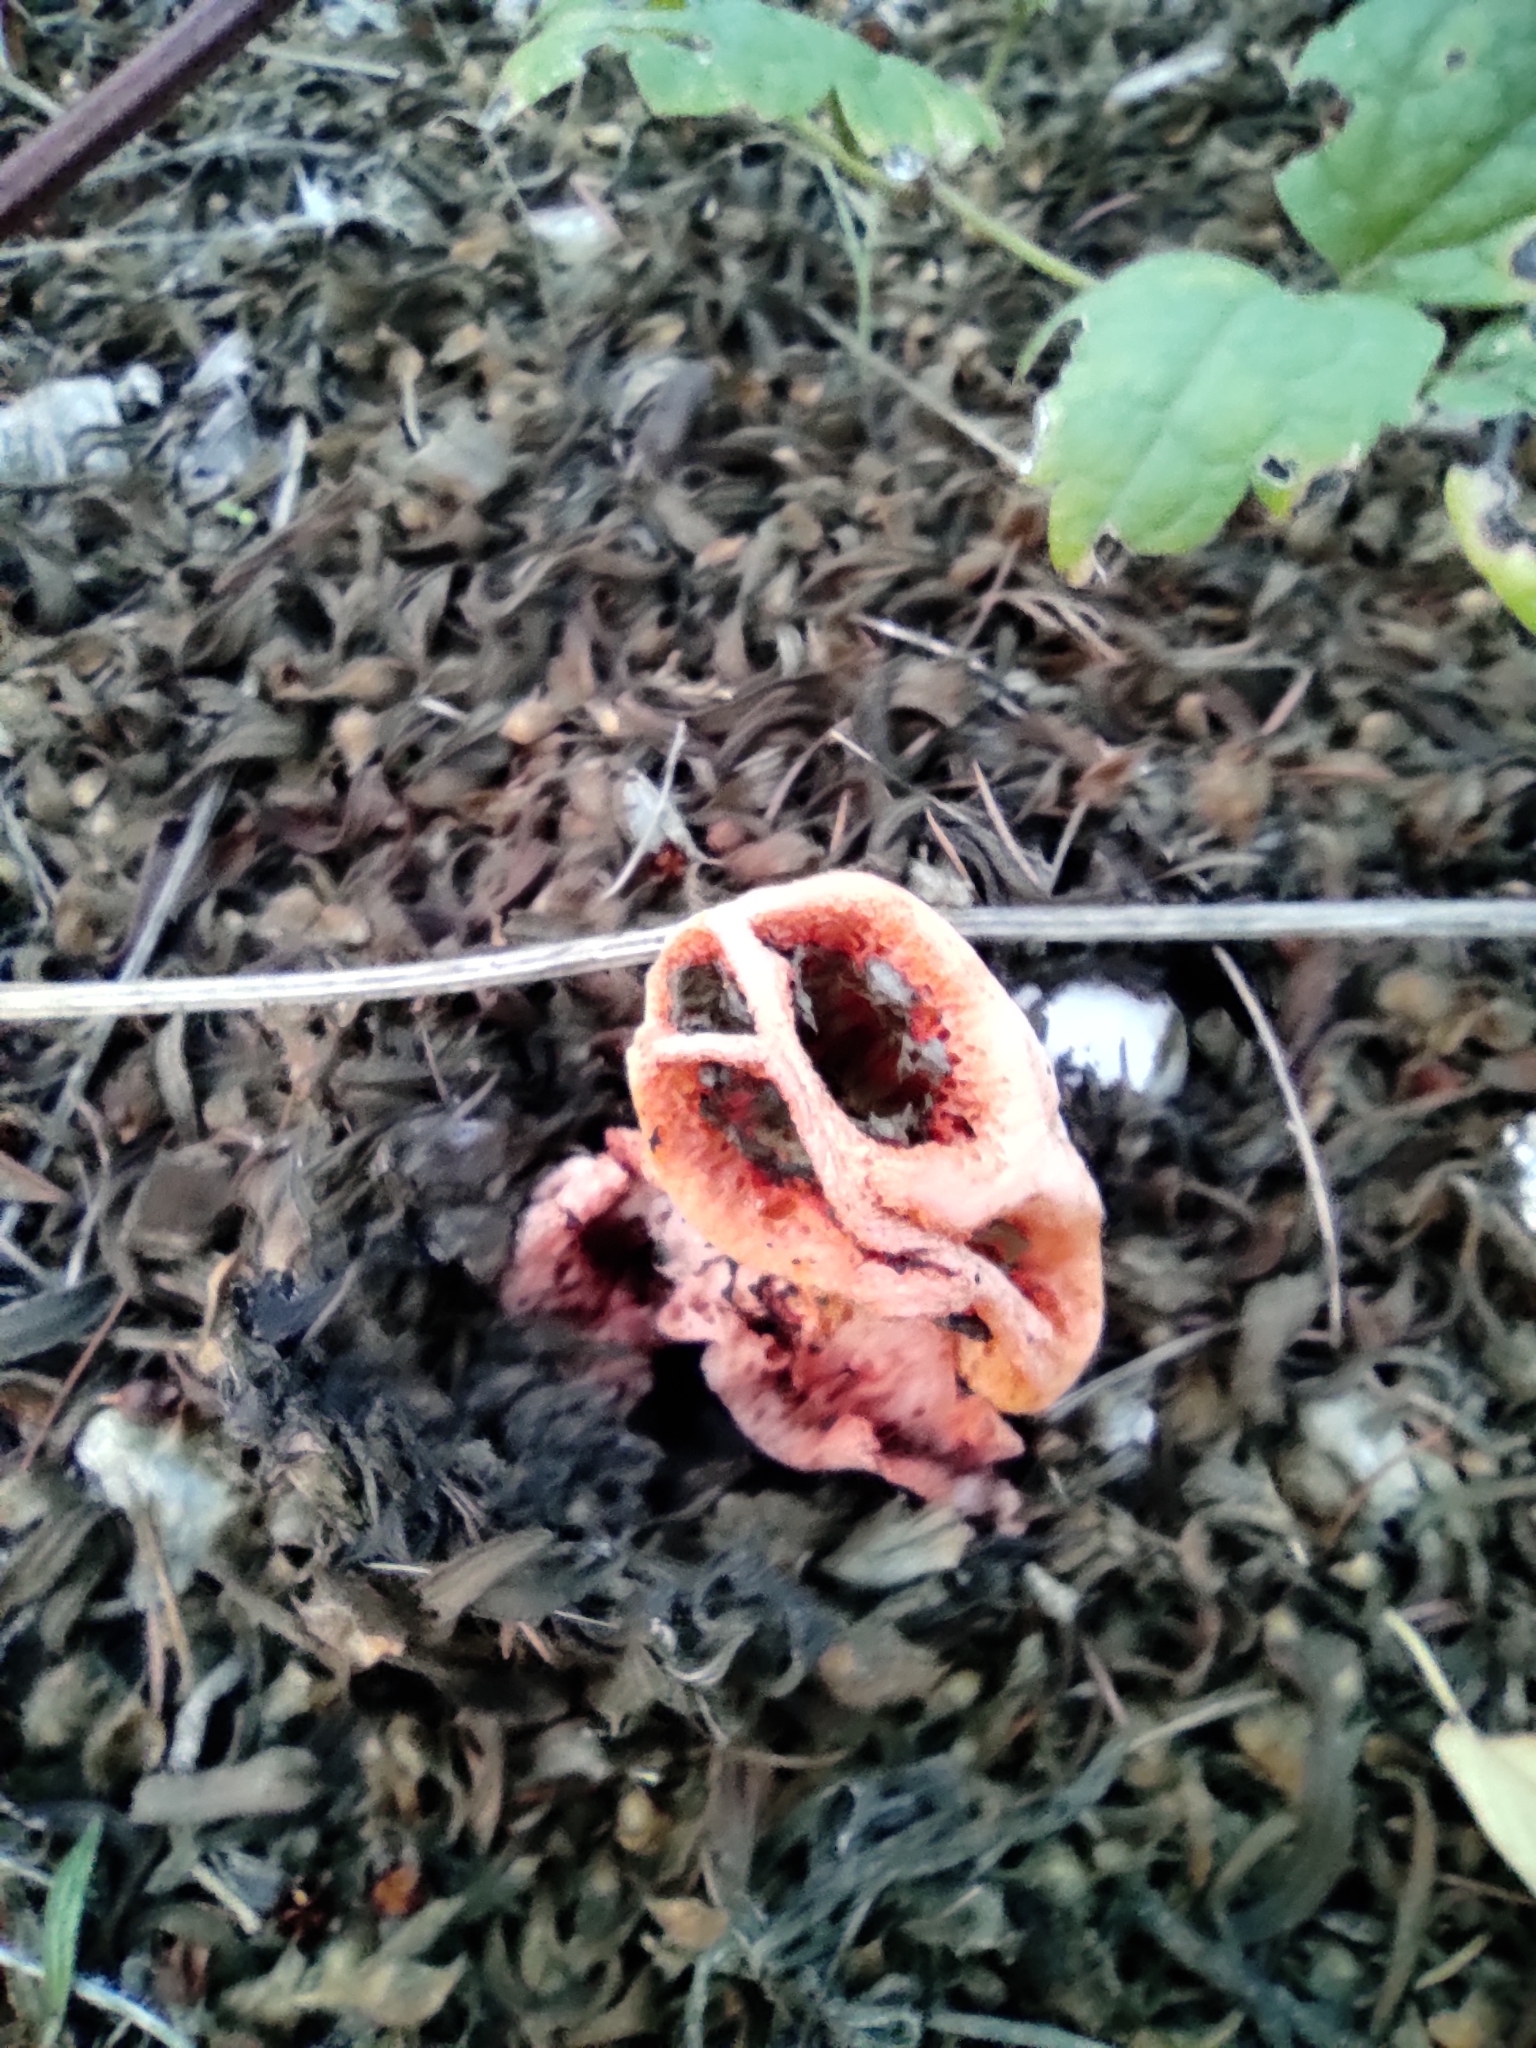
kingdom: Fungi
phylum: Basidiomycota
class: Agaricomycetes
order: Phallales
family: Phallaceae
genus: Clathrus
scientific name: Clathrus ruber
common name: Red cage
